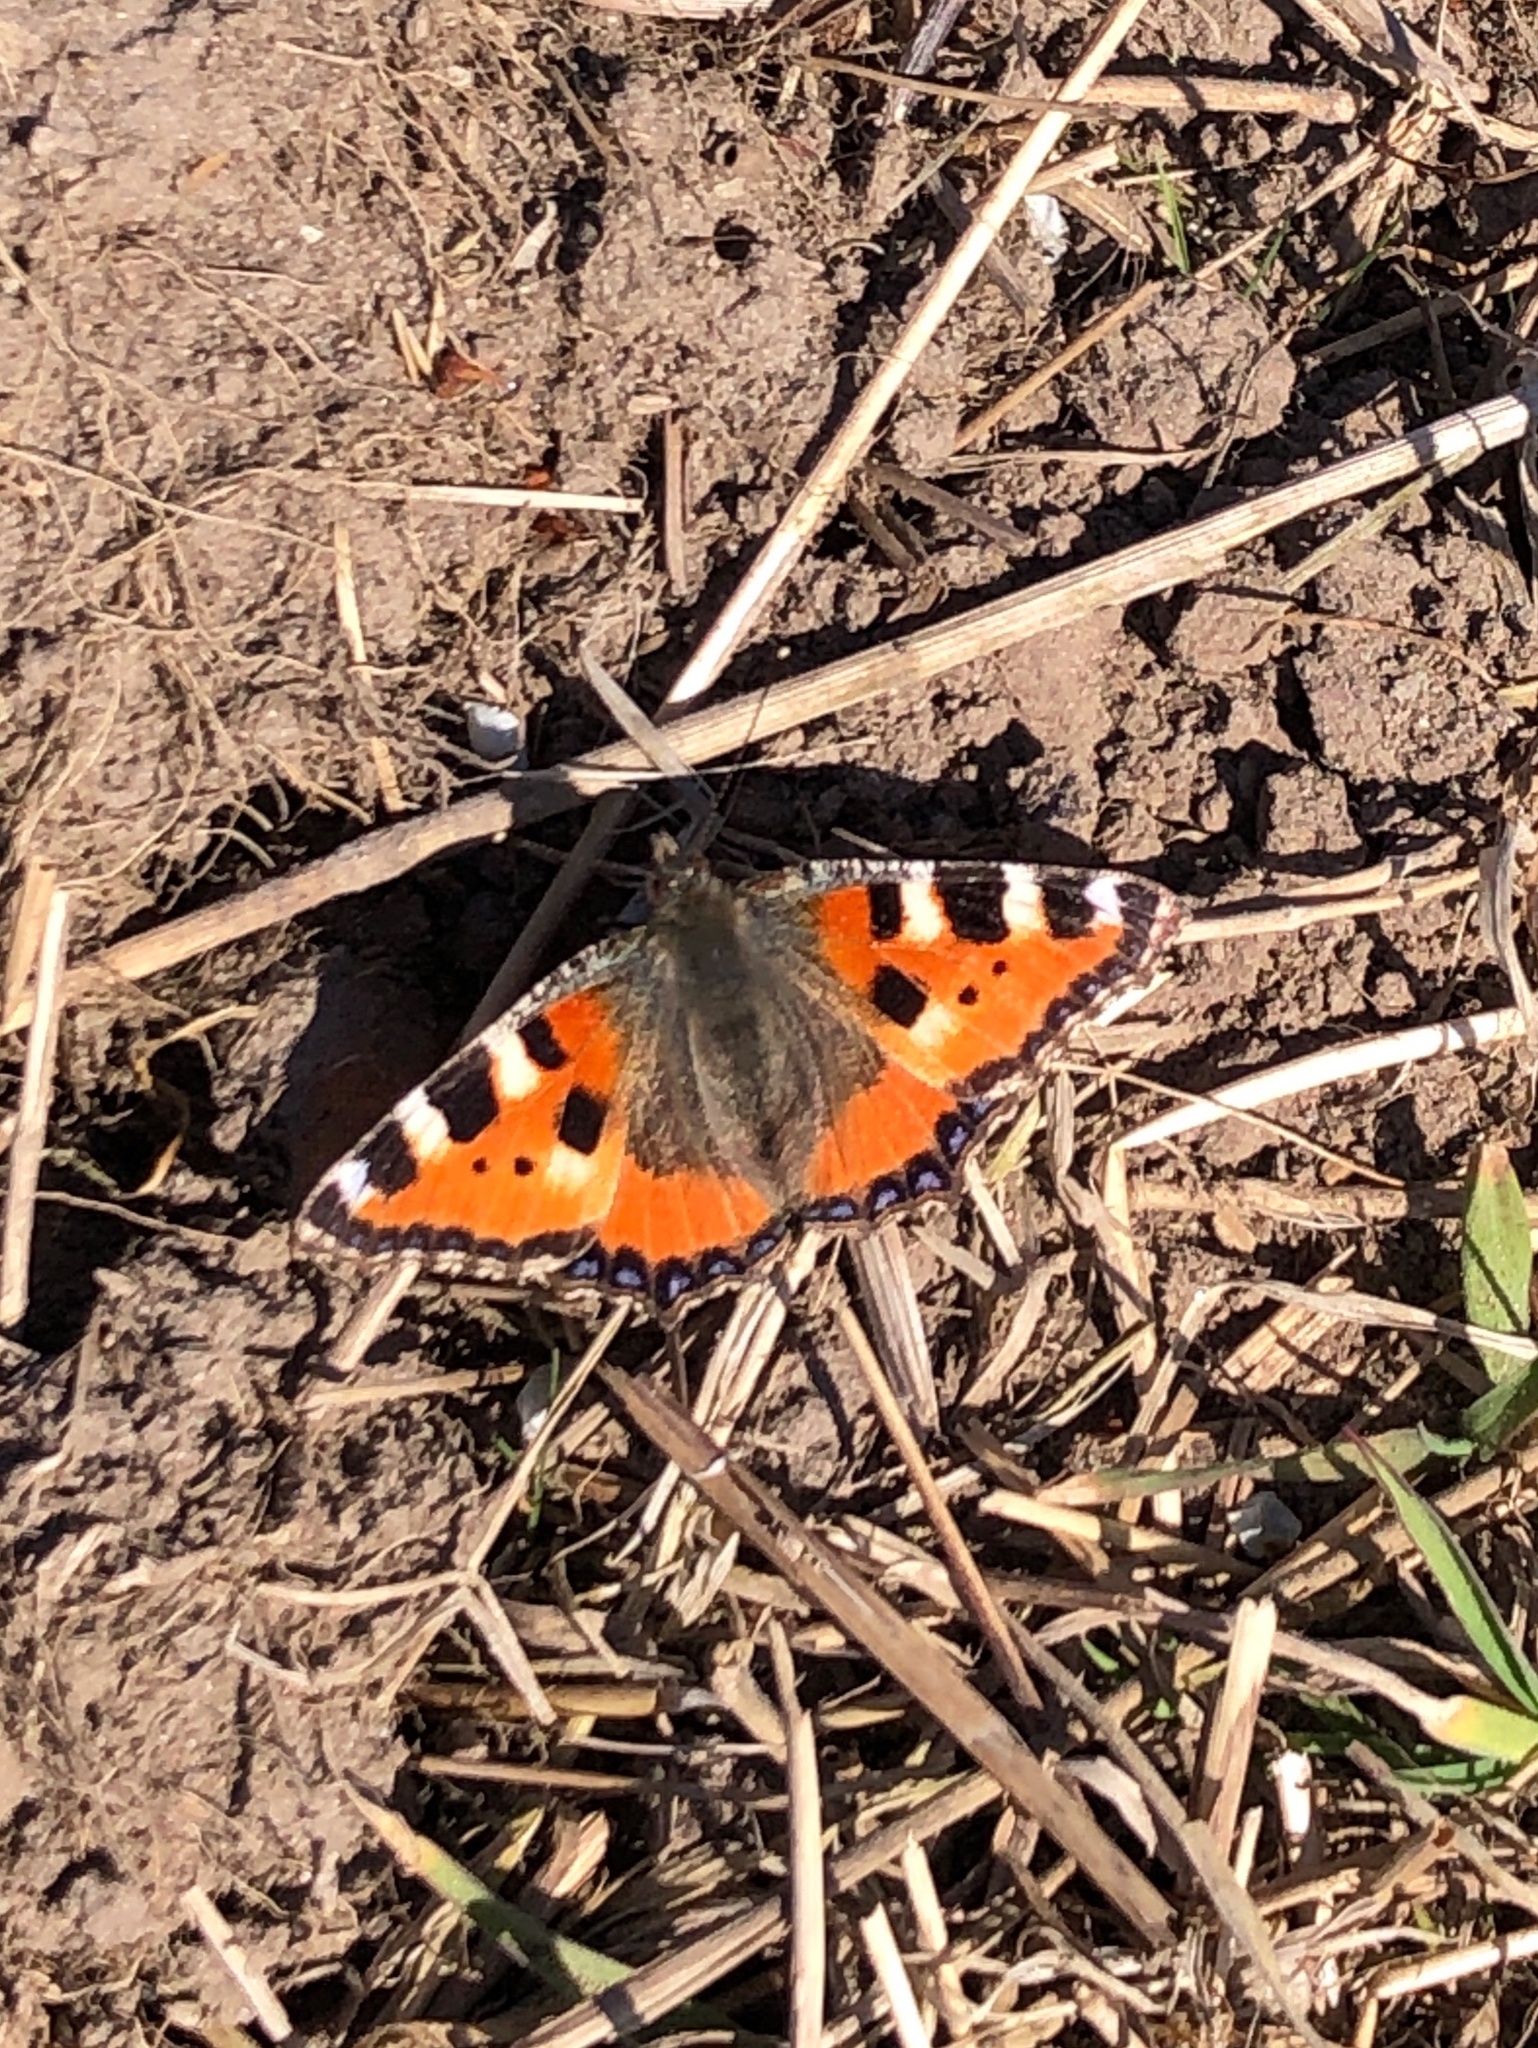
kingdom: Animalia
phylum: Arthropoda
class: Insecta
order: Lepidoptera
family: Nymphalidae
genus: Aglais
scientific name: Aglais urticae
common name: Small tortoiseshell
